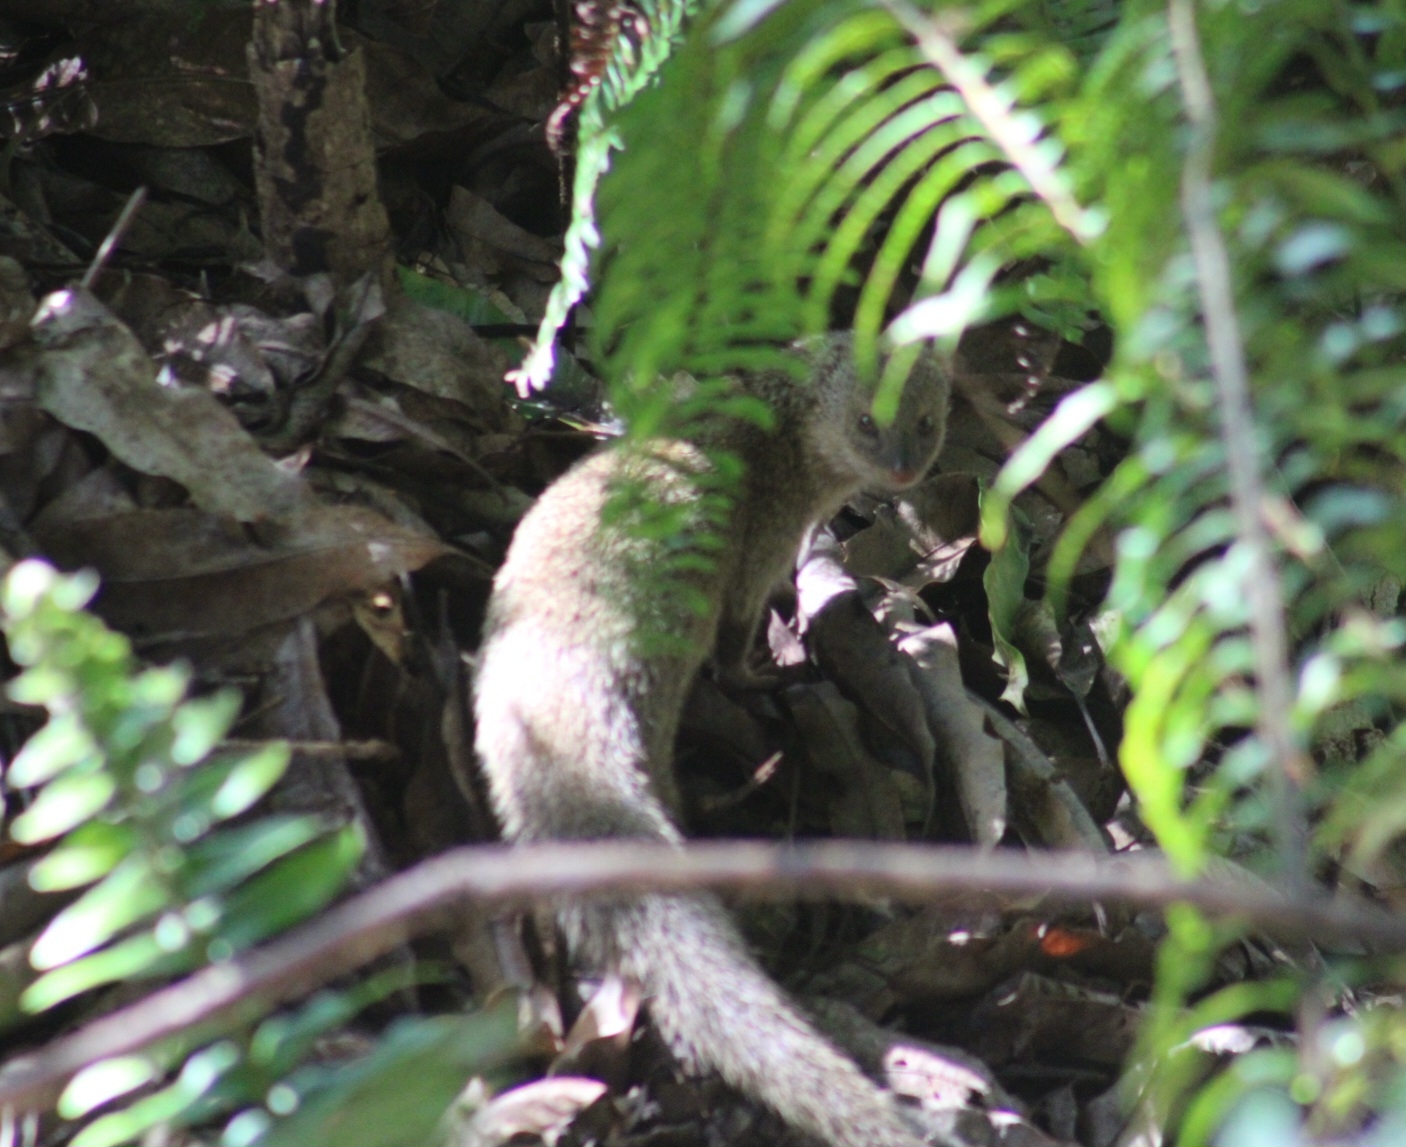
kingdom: Animalia
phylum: Chordata
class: Mammalia
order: Carnivora
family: Herpestidae
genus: Herpestes
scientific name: Herpestes javanicus
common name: Small asian mongoose
